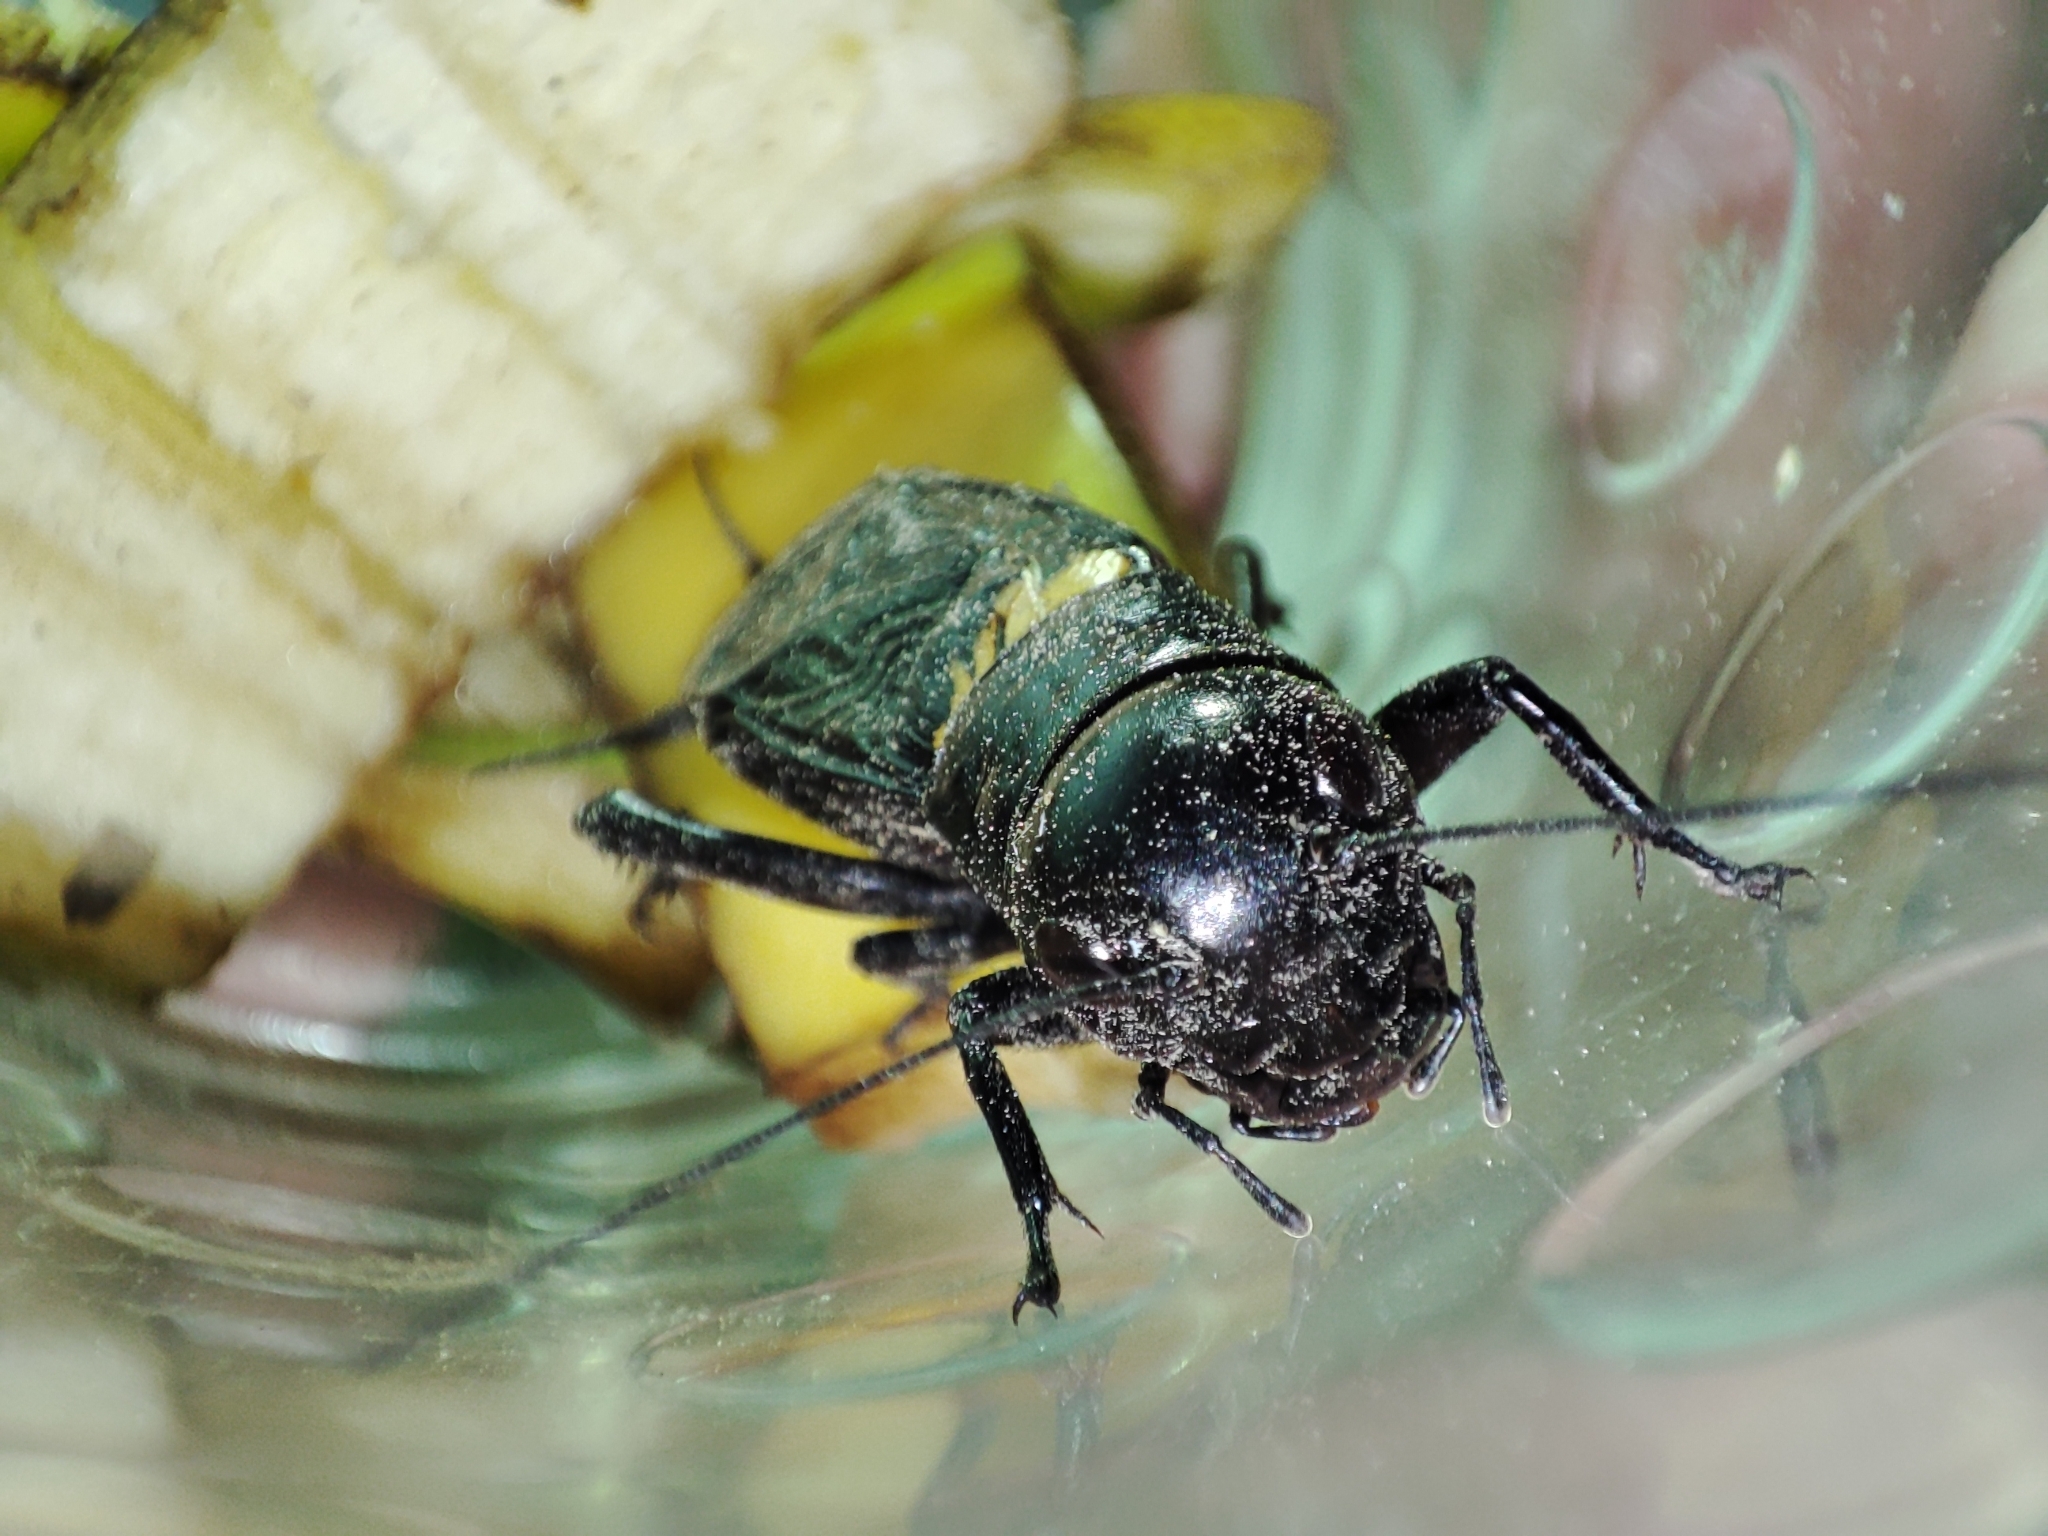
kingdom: Animalia
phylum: Arthropoda
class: Insecta
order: Orthoptera
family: Gryllidae
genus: Gryllus
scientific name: Gryllus campestris
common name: Field cricket
